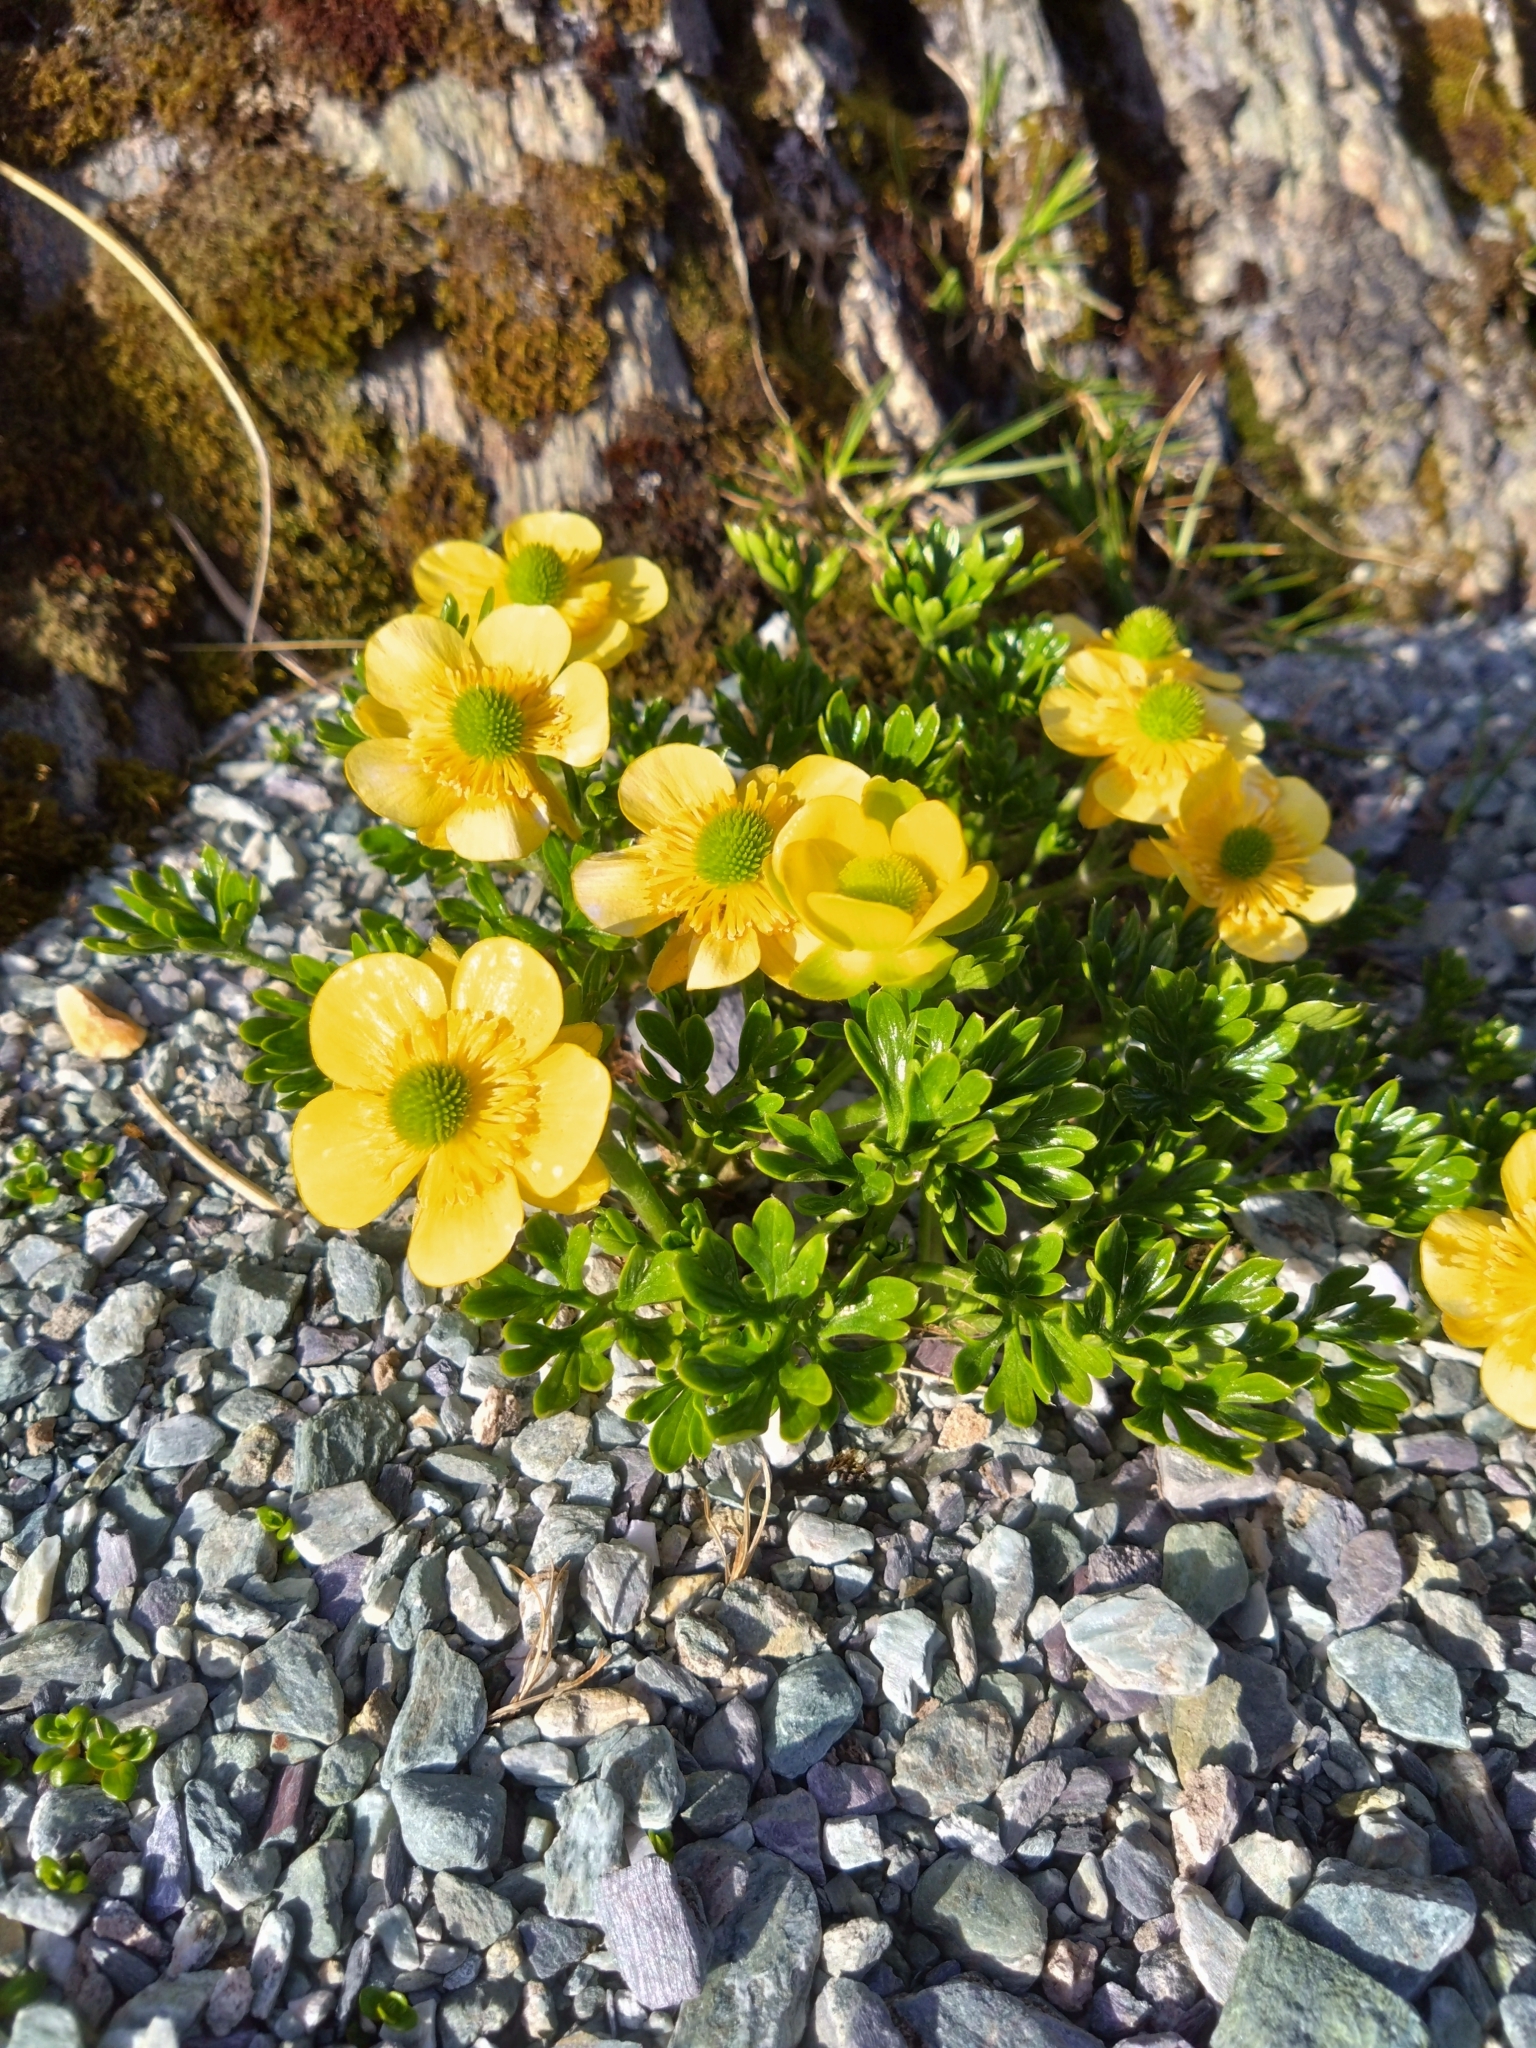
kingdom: Plantae
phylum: Tracheophyta
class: Magnoliopsida
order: Ranunculales
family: Ranunculaceae
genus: Ranunculus
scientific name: Ranunculus sericophyllus
